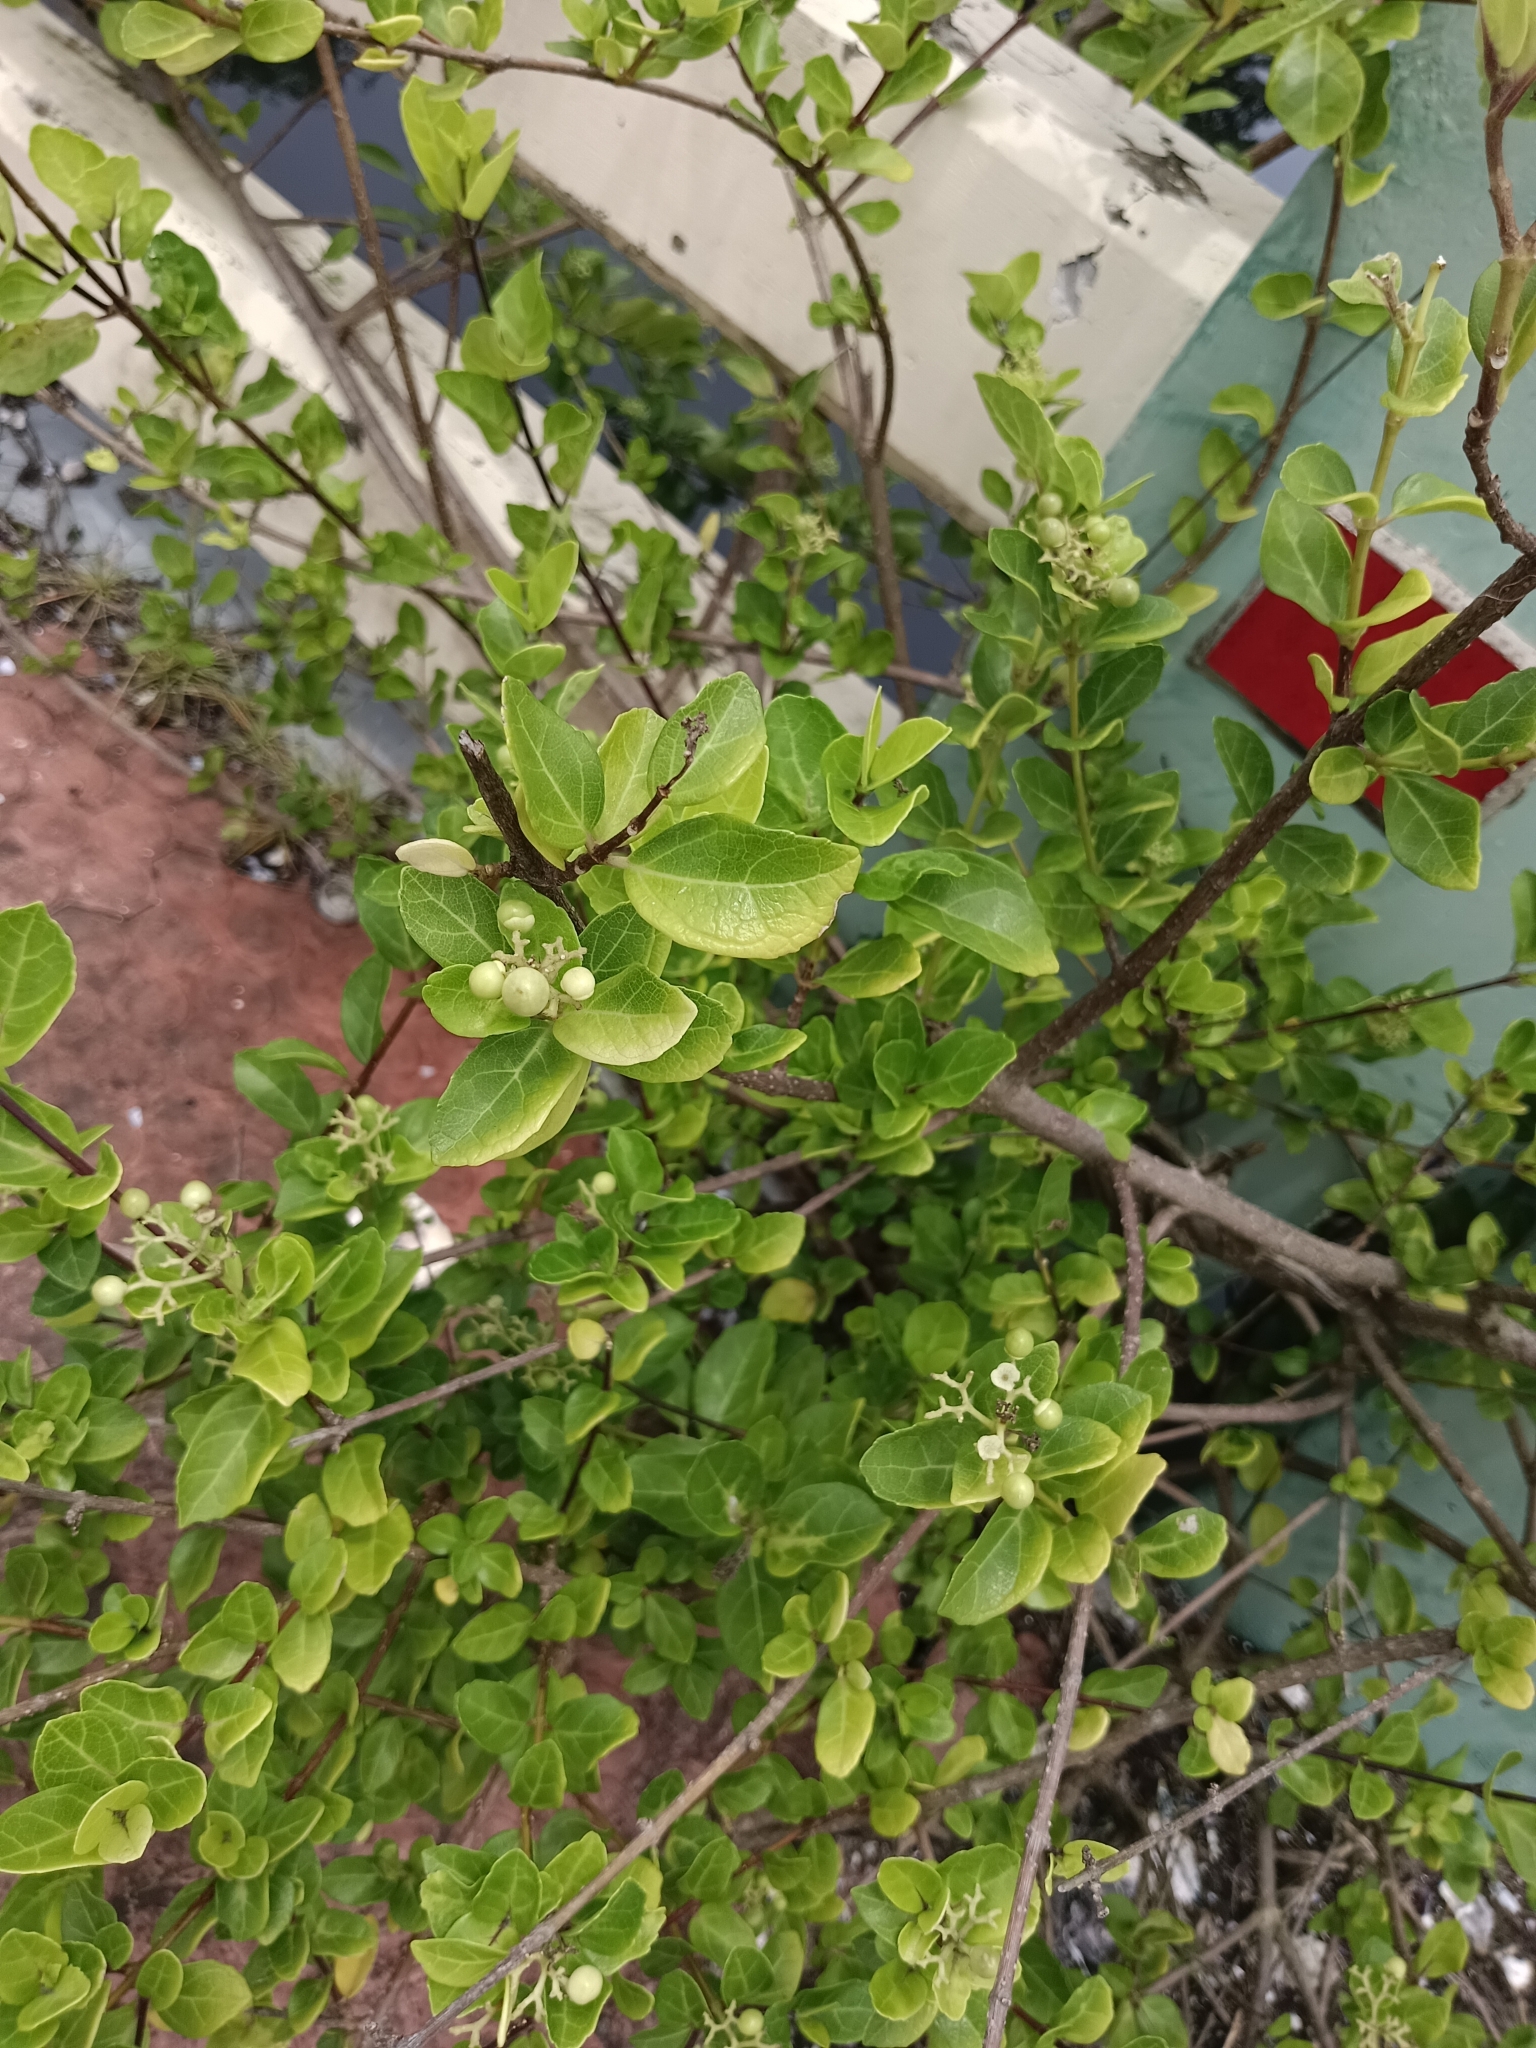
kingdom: Plantae
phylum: Tracheophyta
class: Magnoliopsida
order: Lamiales
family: Lamiaceae
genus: Premna
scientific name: Premna serratifolia
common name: Bastard guelder
